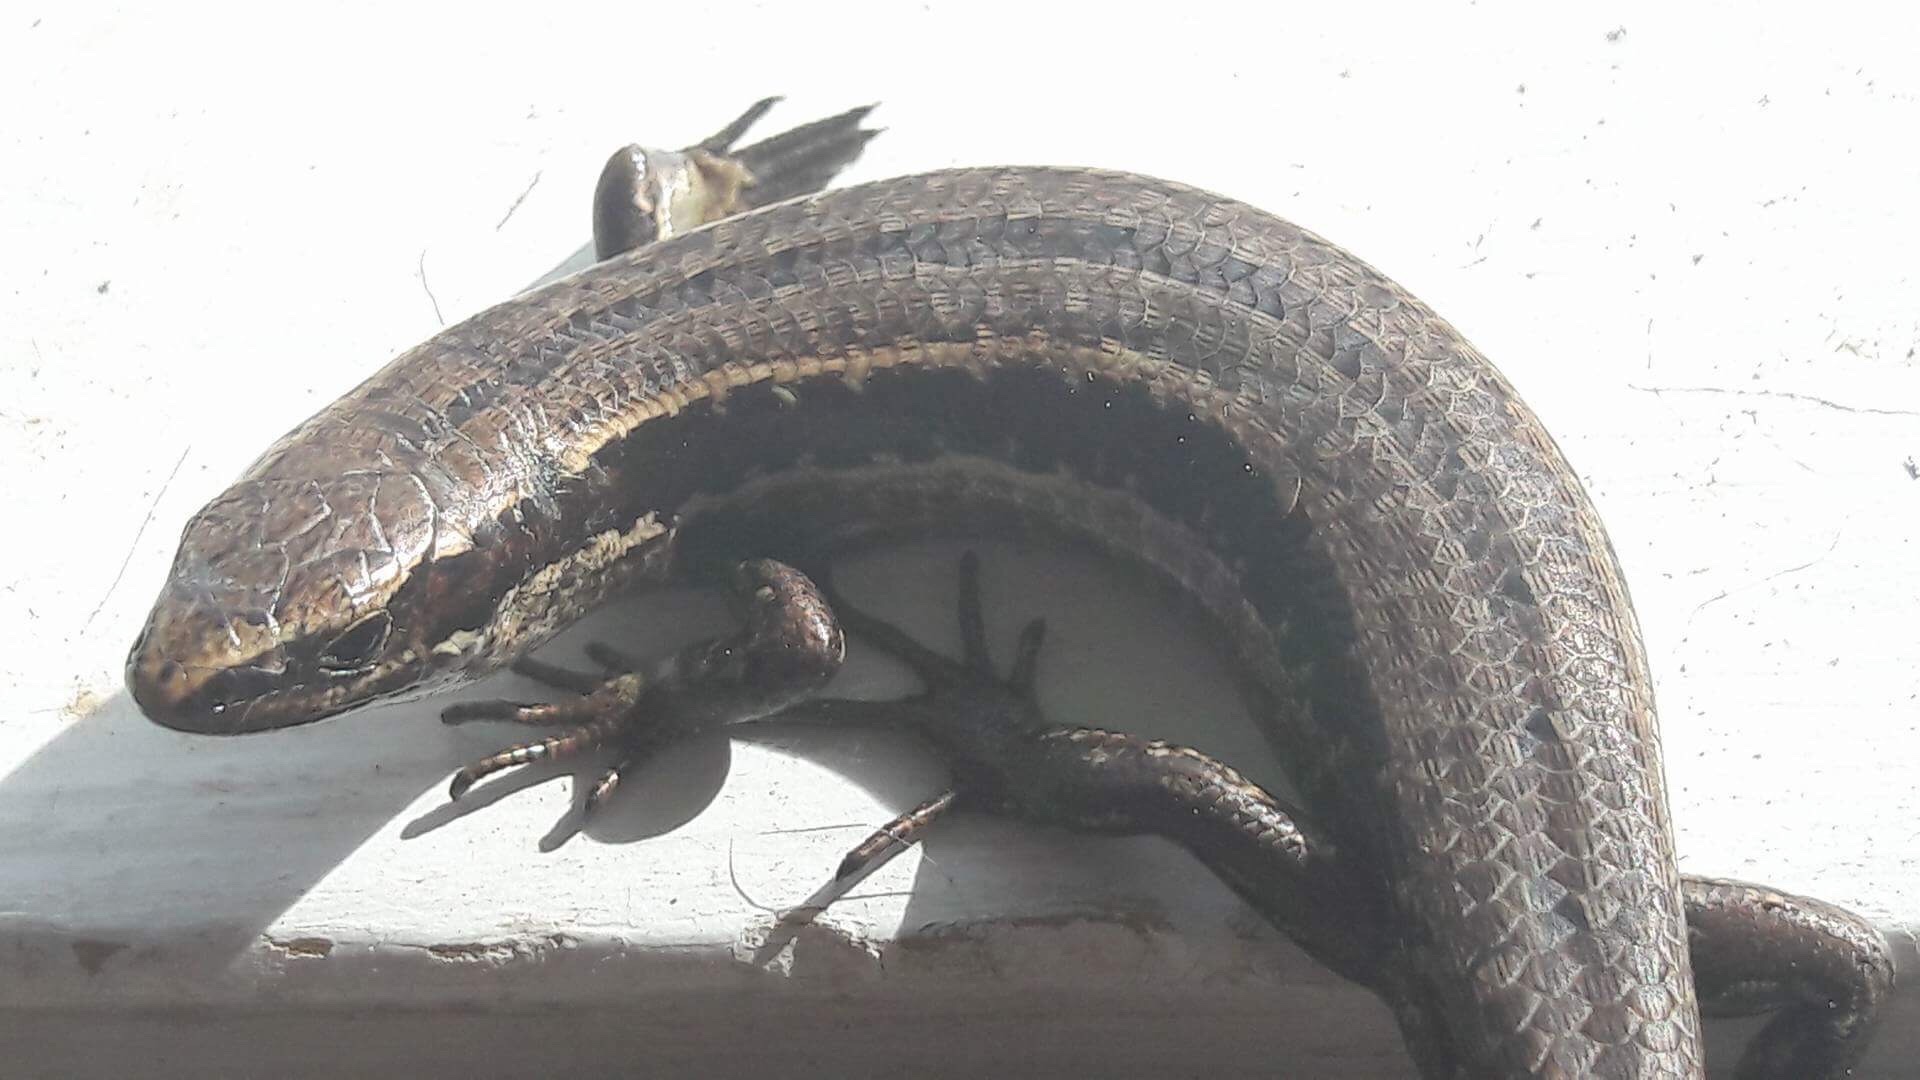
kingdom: Animalia
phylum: Chordata
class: Squamata
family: Scincidae
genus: Oligosoma
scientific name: Oligosoma polychroma
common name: Common new zealand skink
